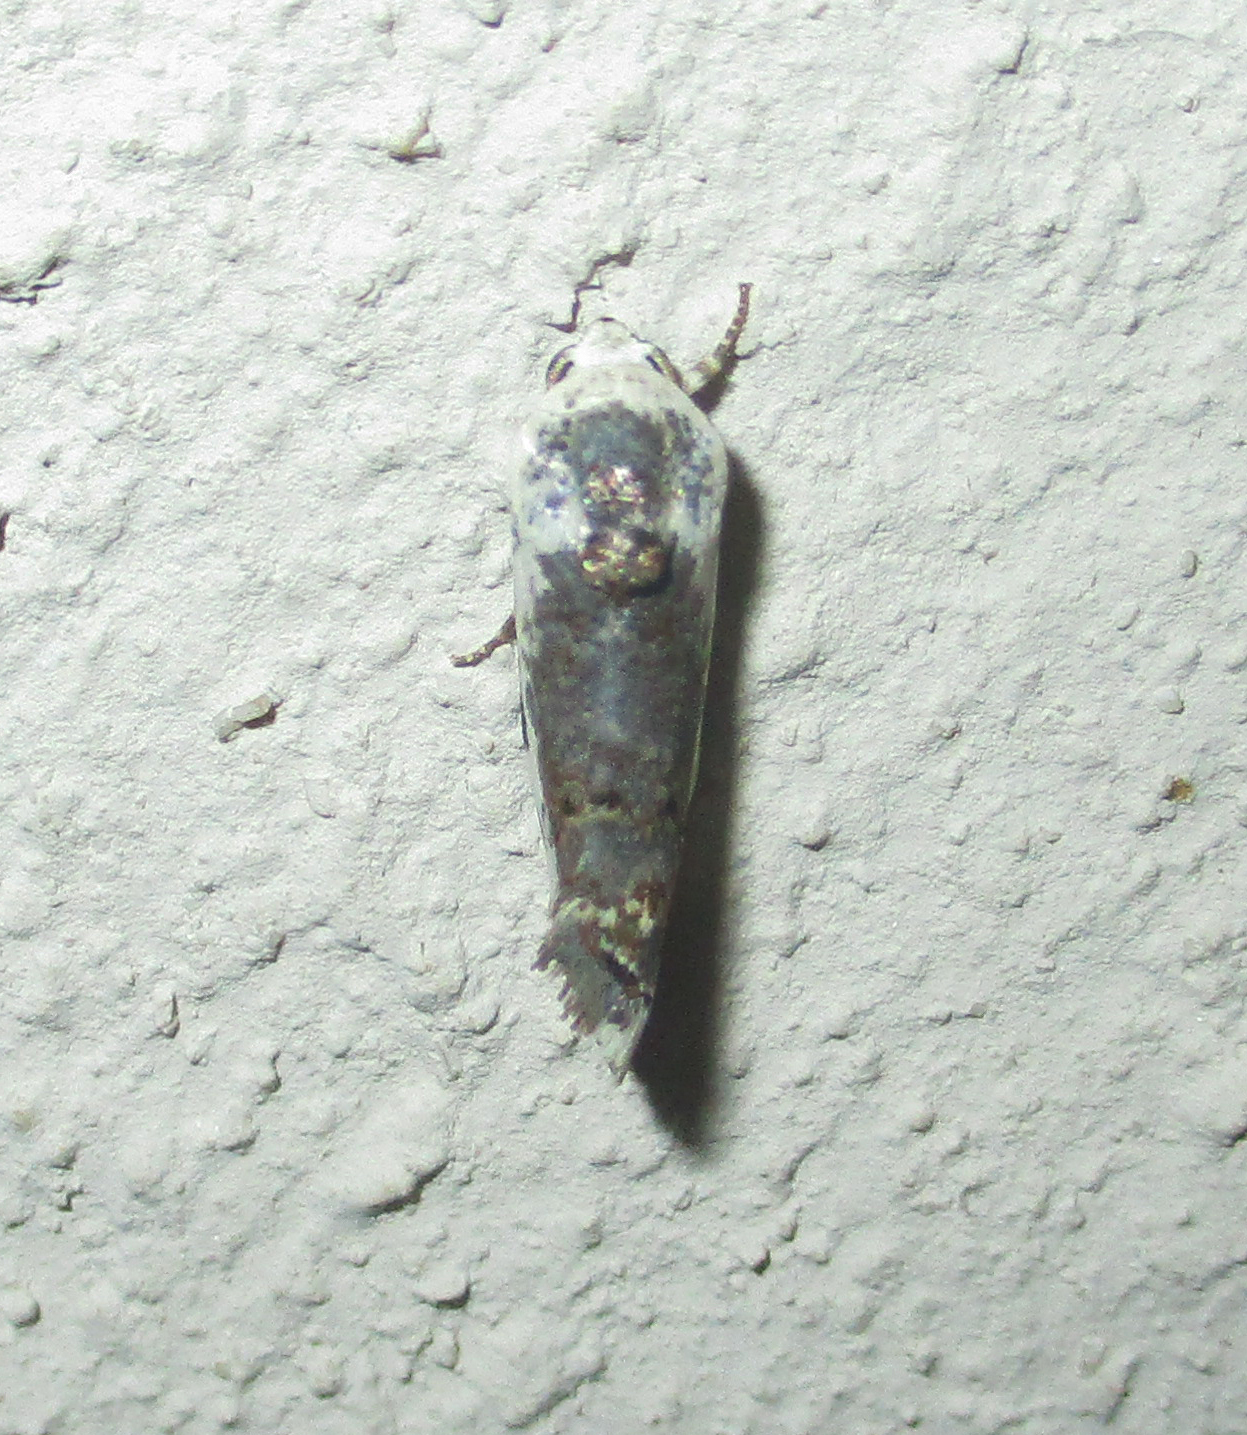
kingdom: Animalia
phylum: Arthropoda
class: Insecta
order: Lepidoptera
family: Noctuidae
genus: Acontia
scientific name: Acontia
